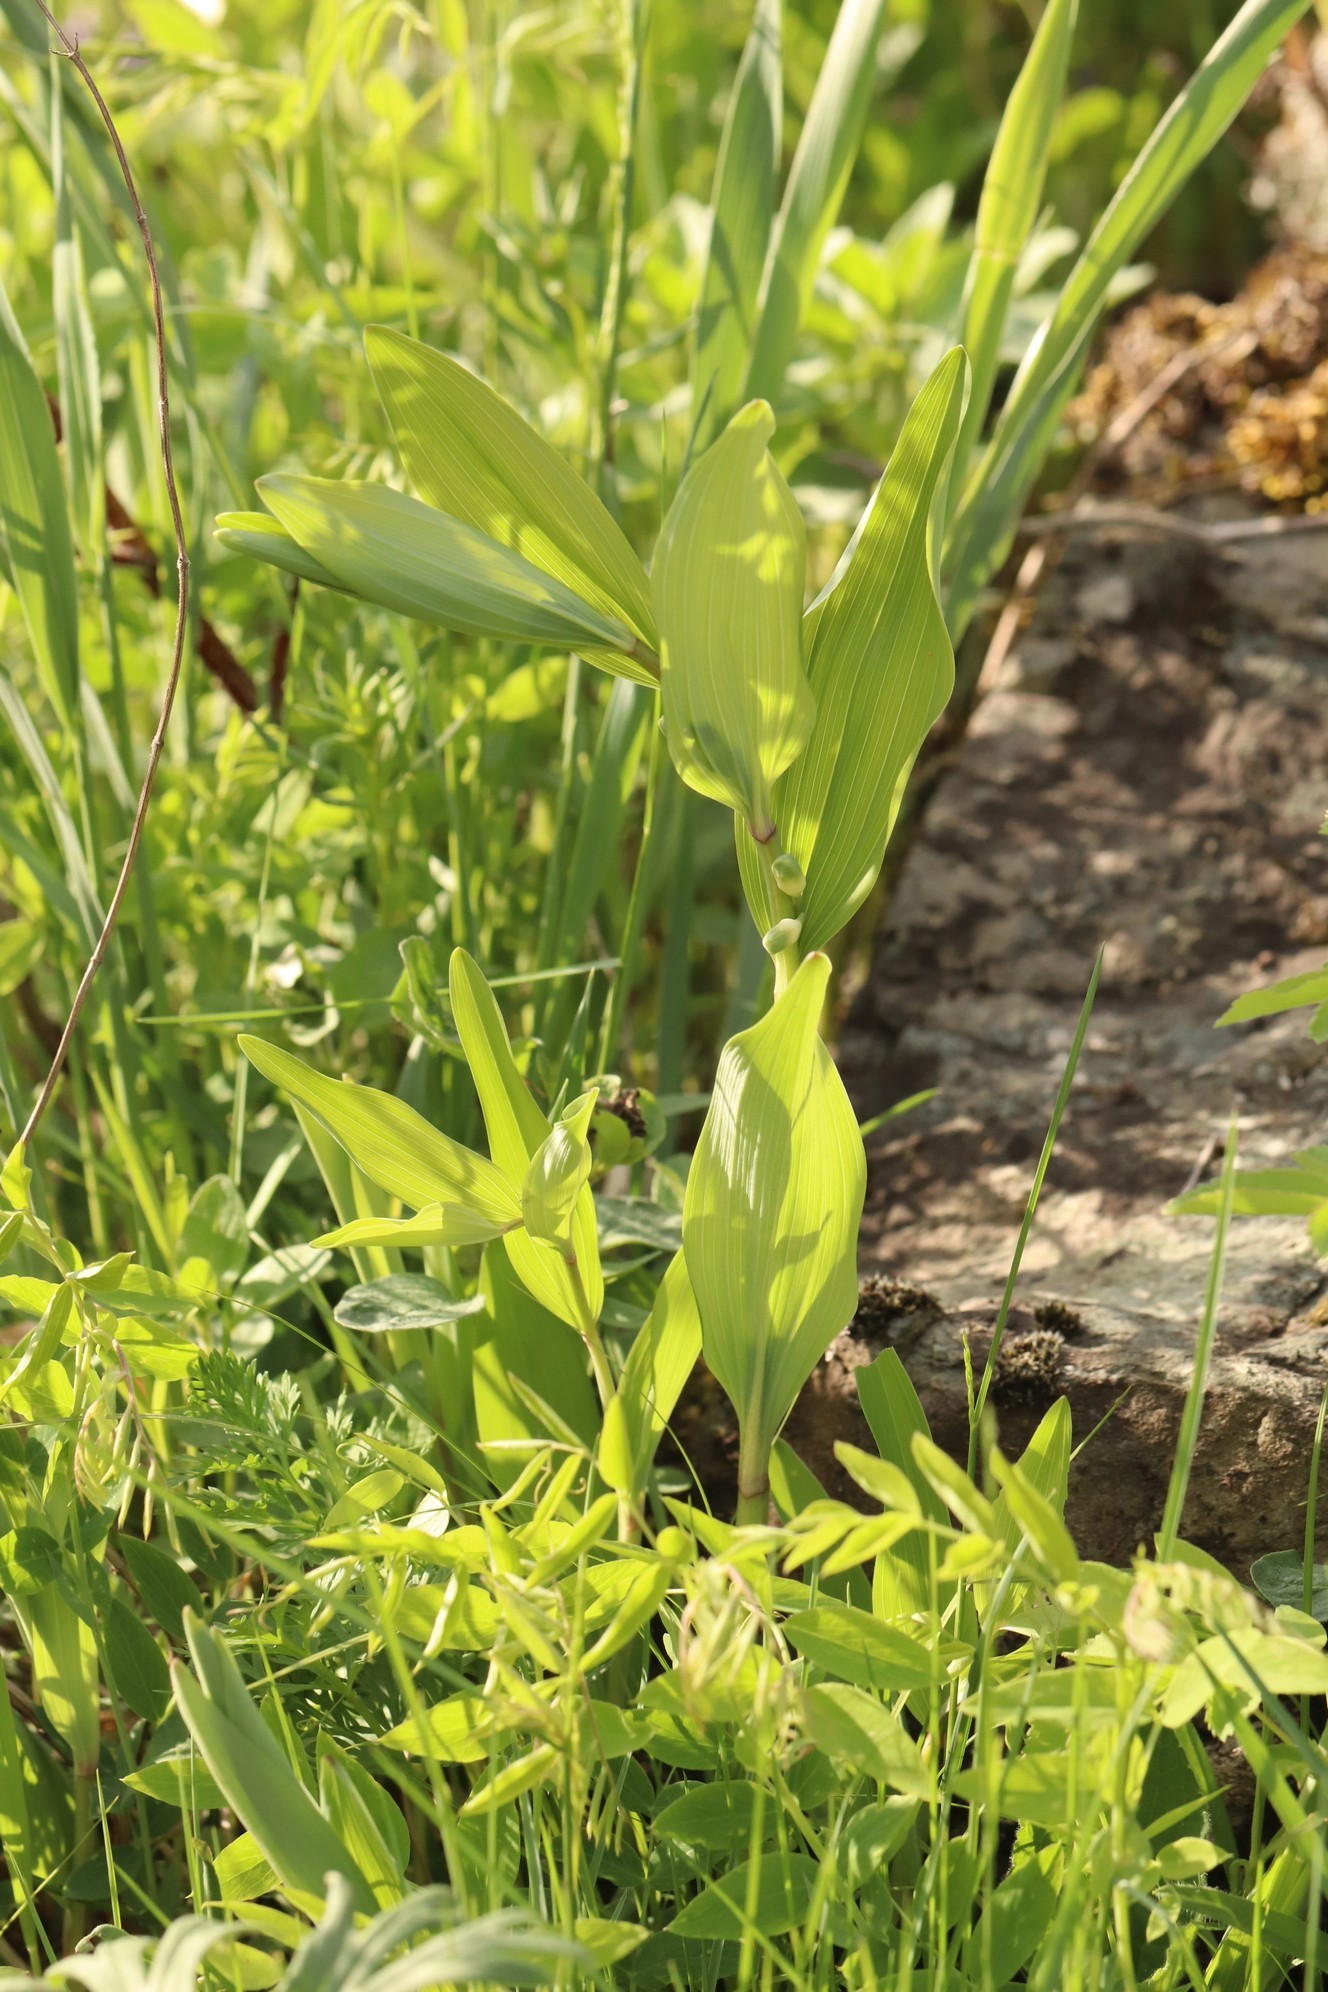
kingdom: Plantae
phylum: Tracheophyta
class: Liliopsida
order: Asparagales
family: Asparagaceae
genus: Polygonatum
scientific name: Polygonatum odoratum
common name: Angular solomon's-seal
